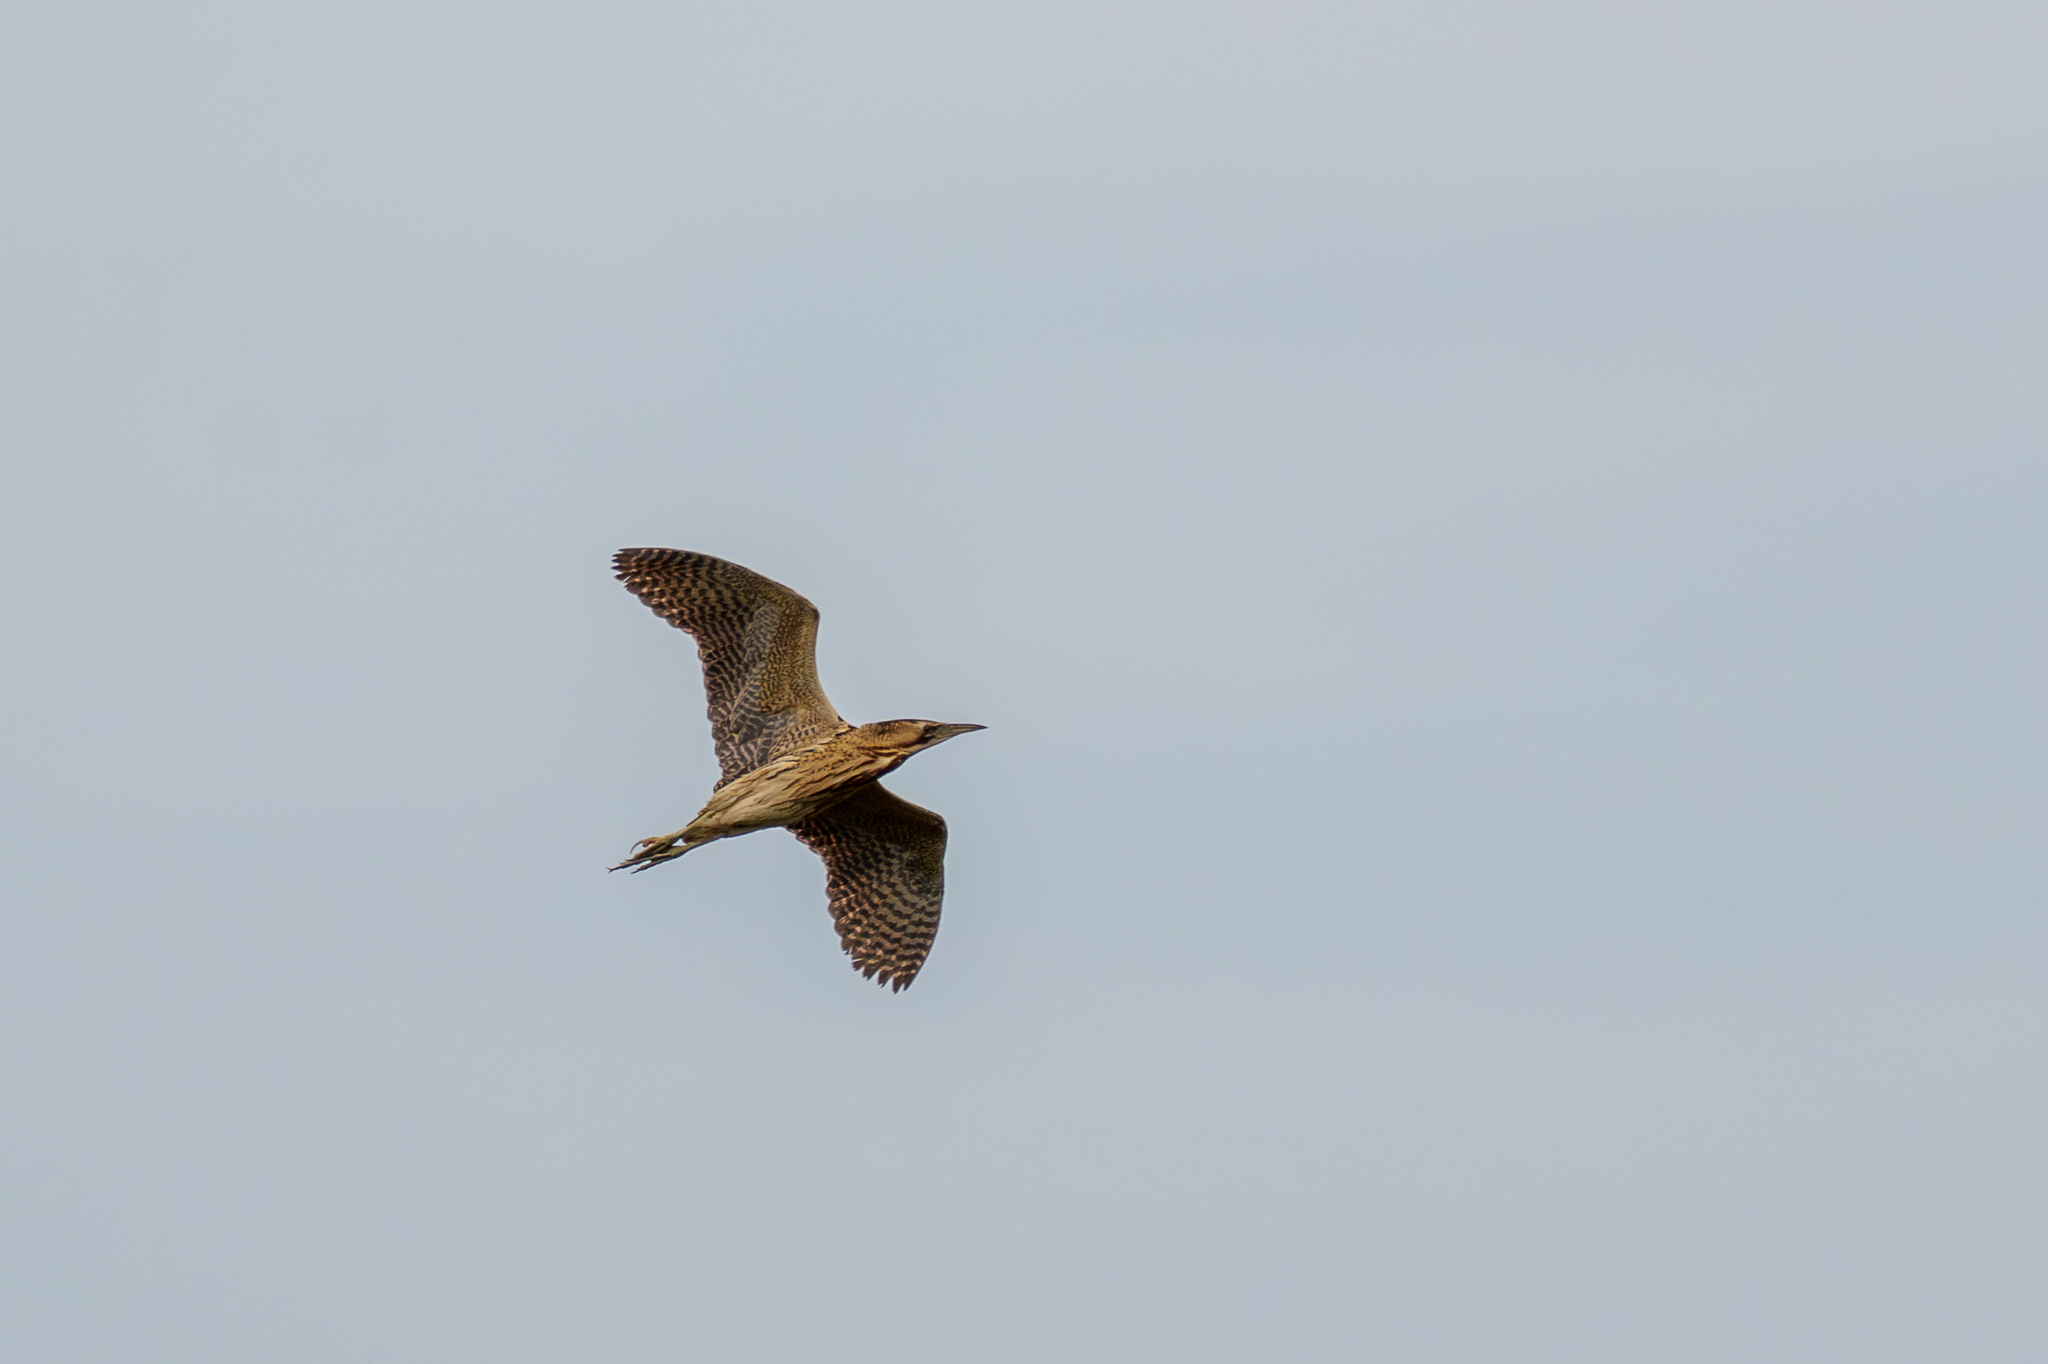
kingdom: Animalia
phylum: Chordata
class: Aves
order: Pelecaniformes
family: Ardeidae
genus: Botaurus
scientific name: Botaurus stellaris
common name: Eurasian bittern
